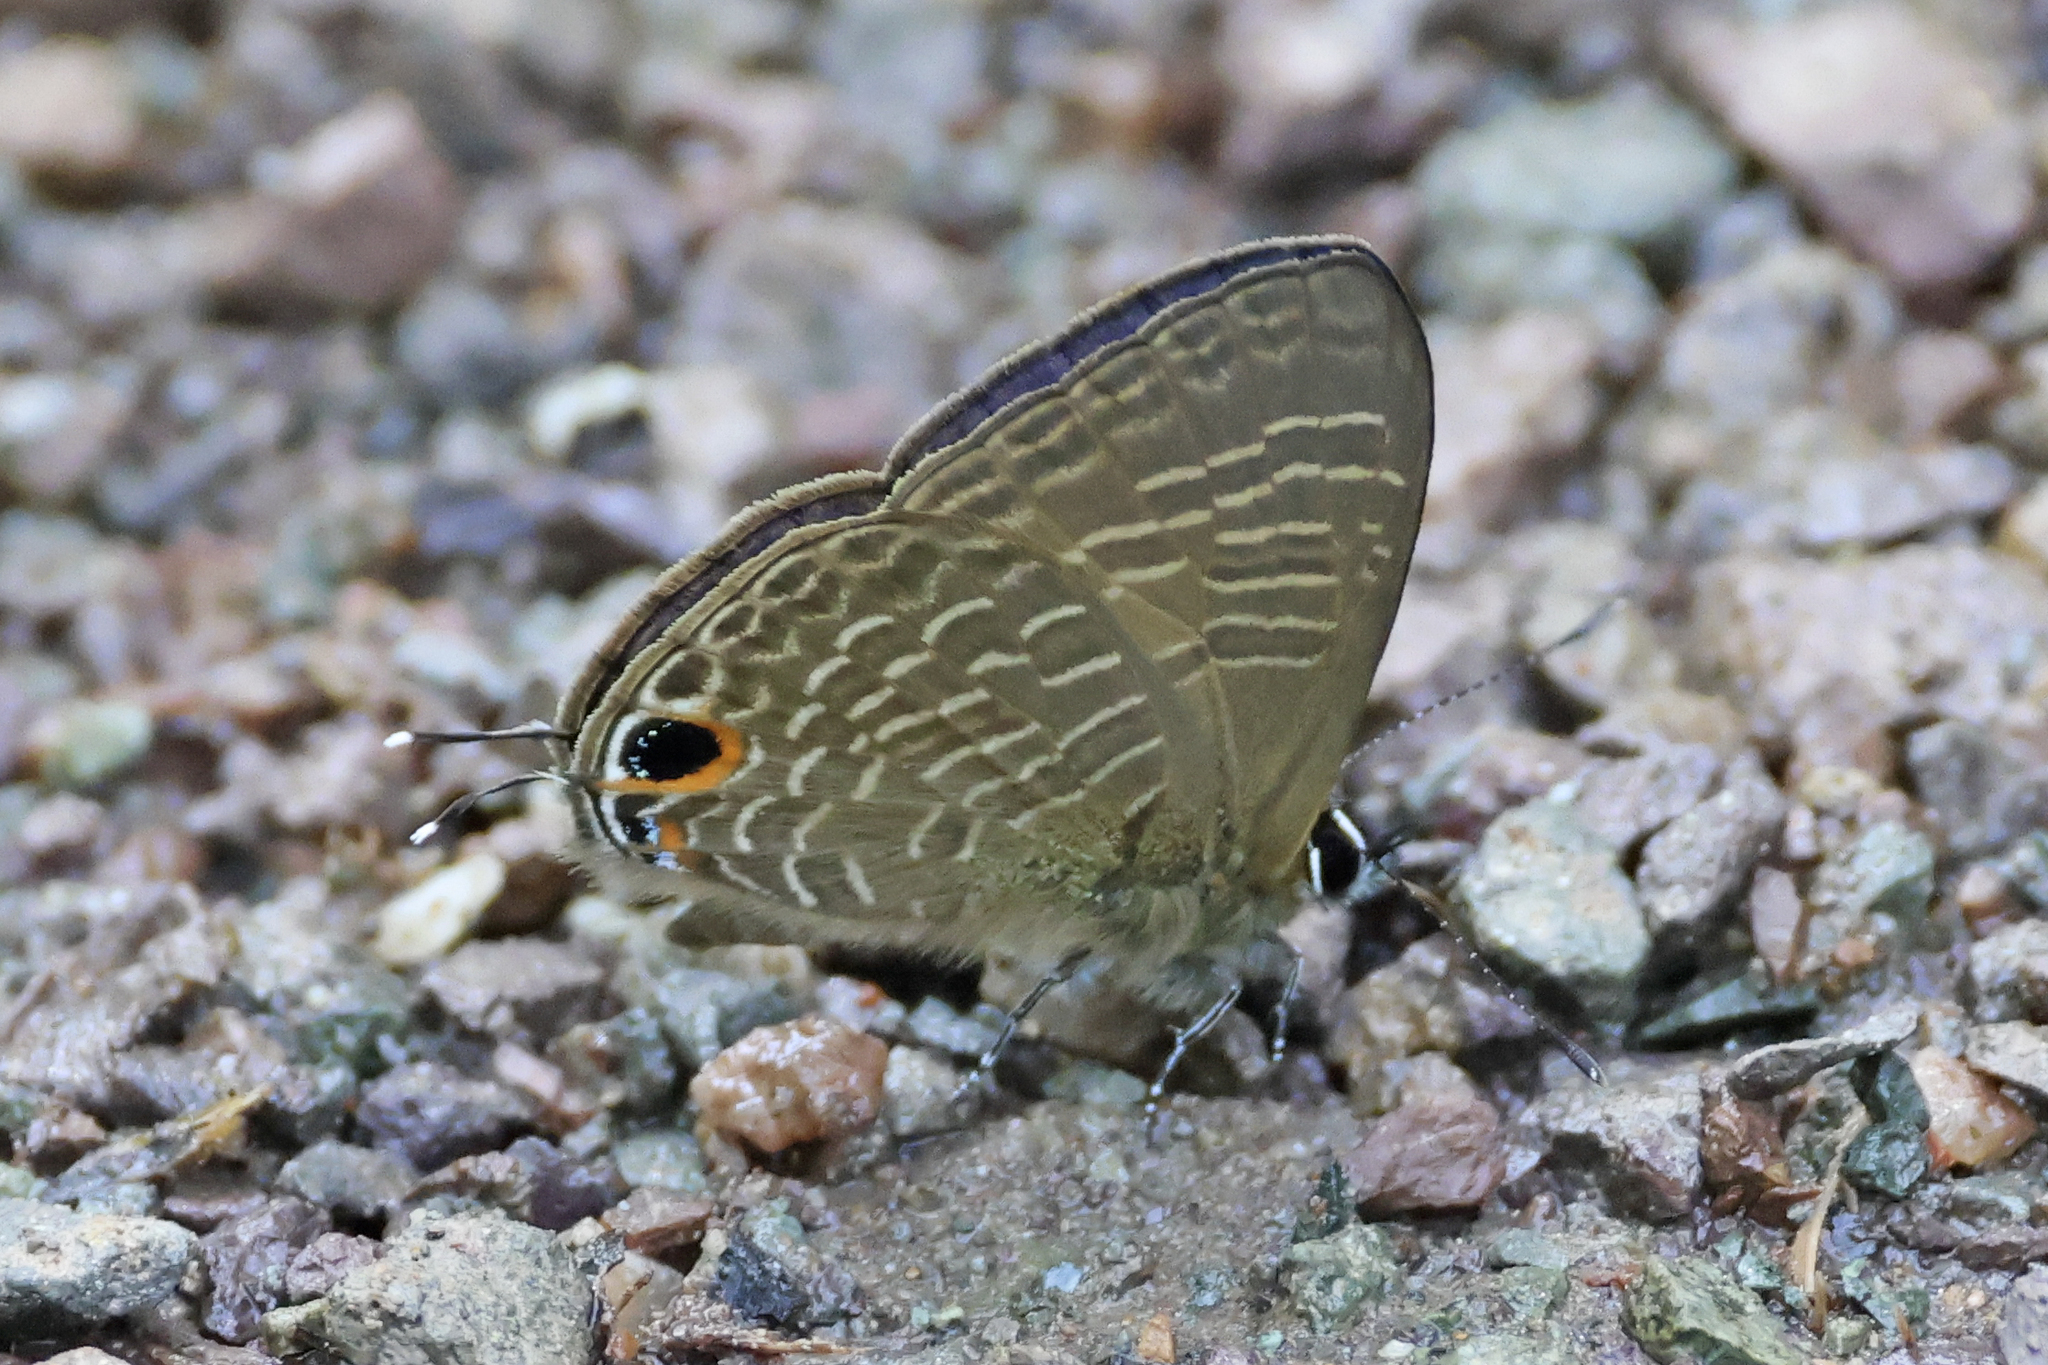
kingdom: Animalia
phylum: Arthropoda
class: Insecta
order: Lepidoptera
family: Lycaenidae
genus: Nacaduba
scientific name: Nacaduba beroe
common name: Opaque sixline blue
